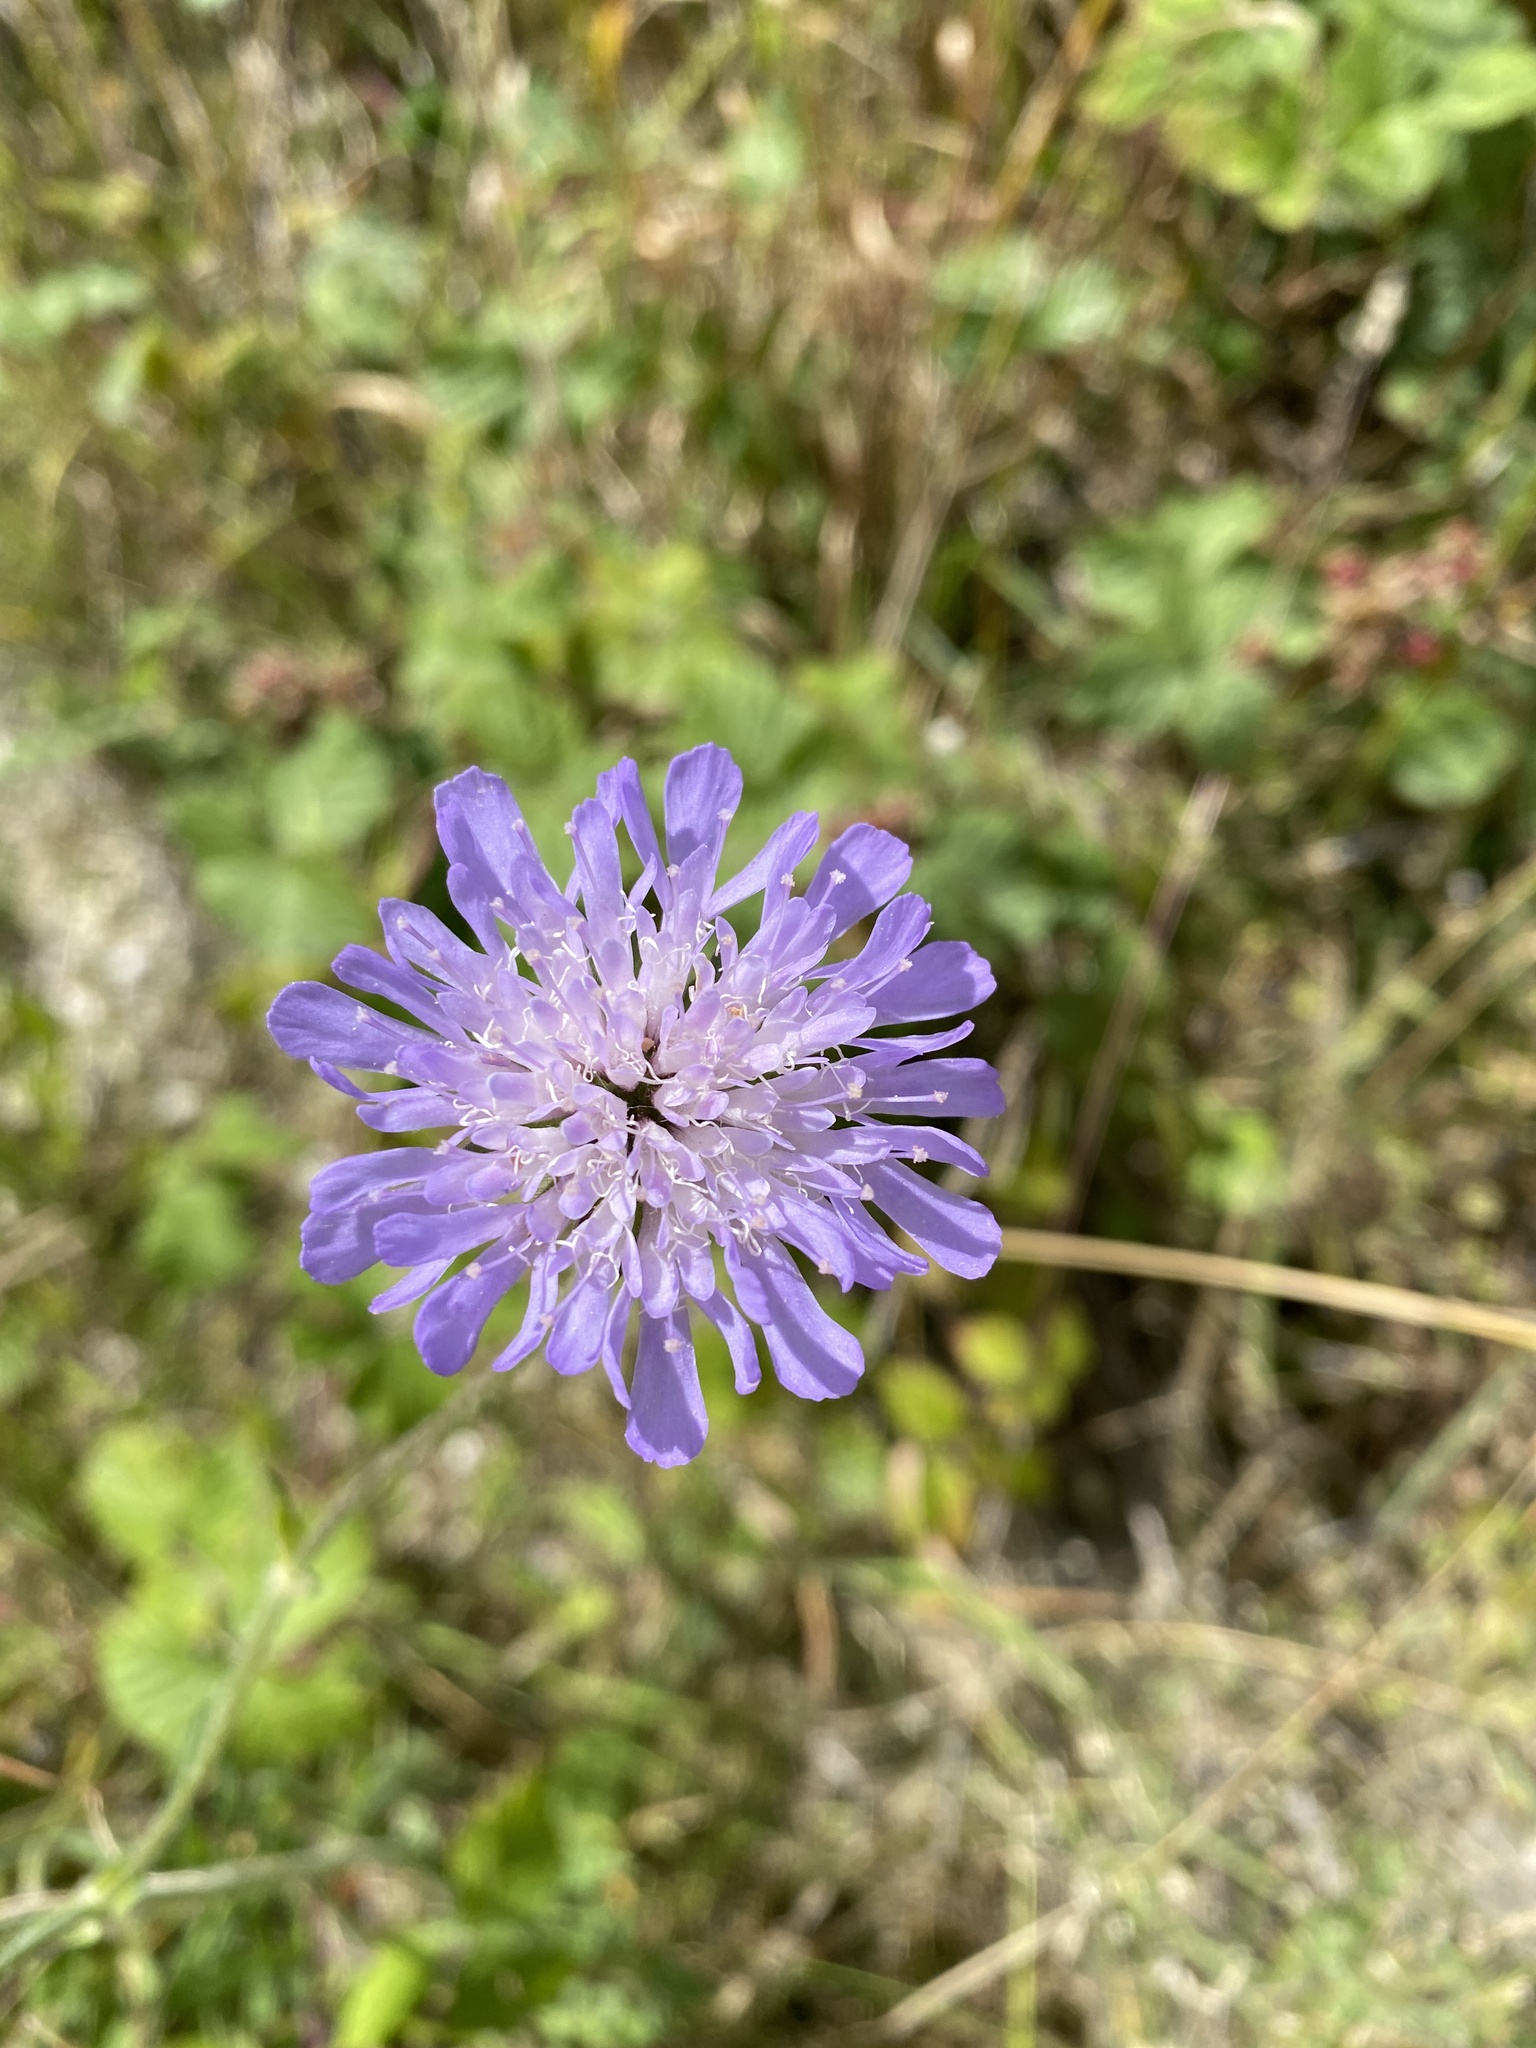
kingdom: Plantae
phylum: Tracheophyta
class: Magnoliopsida
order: Dipsacales
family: Caprifoliaceae
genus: Knautia
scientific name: Knautia arvensis
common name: Field scabiosa
